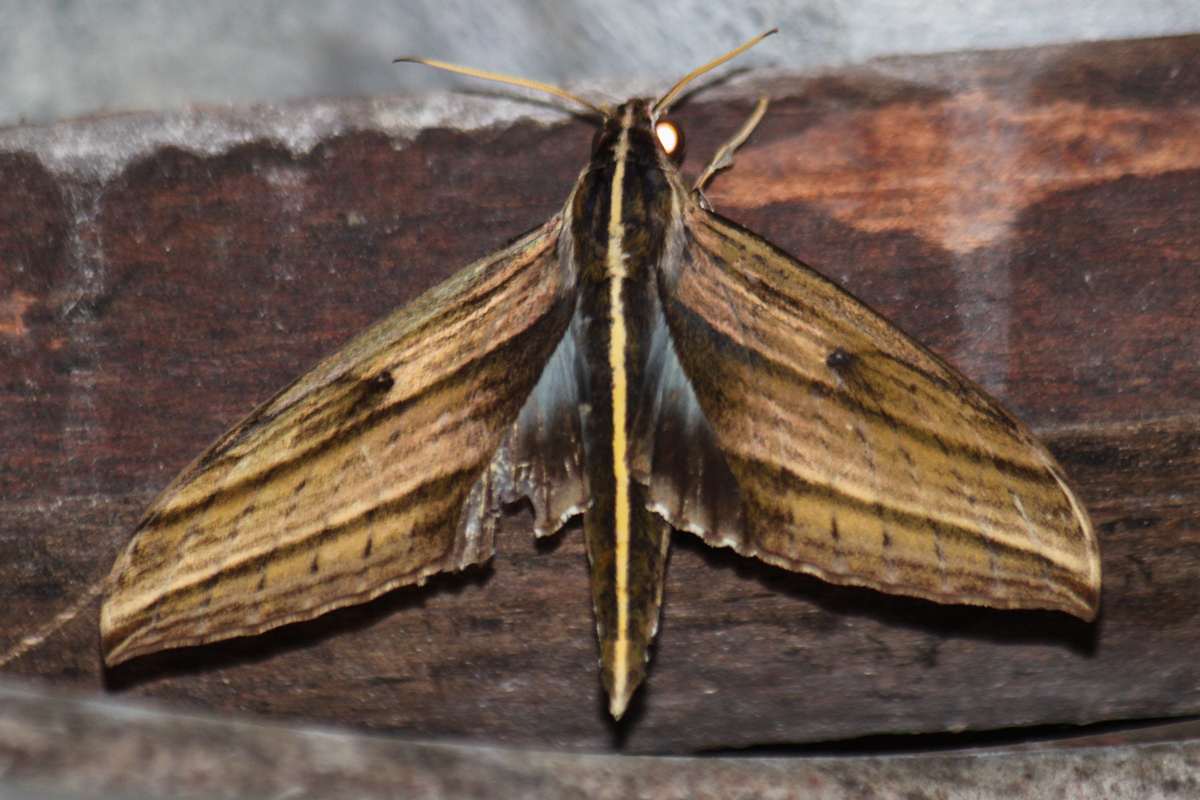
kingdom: Animalia
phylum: Arthropoda
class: Insecta
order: Lepidoptera
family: Sphingidae
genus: Elibia
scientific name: Elibia dolichus
